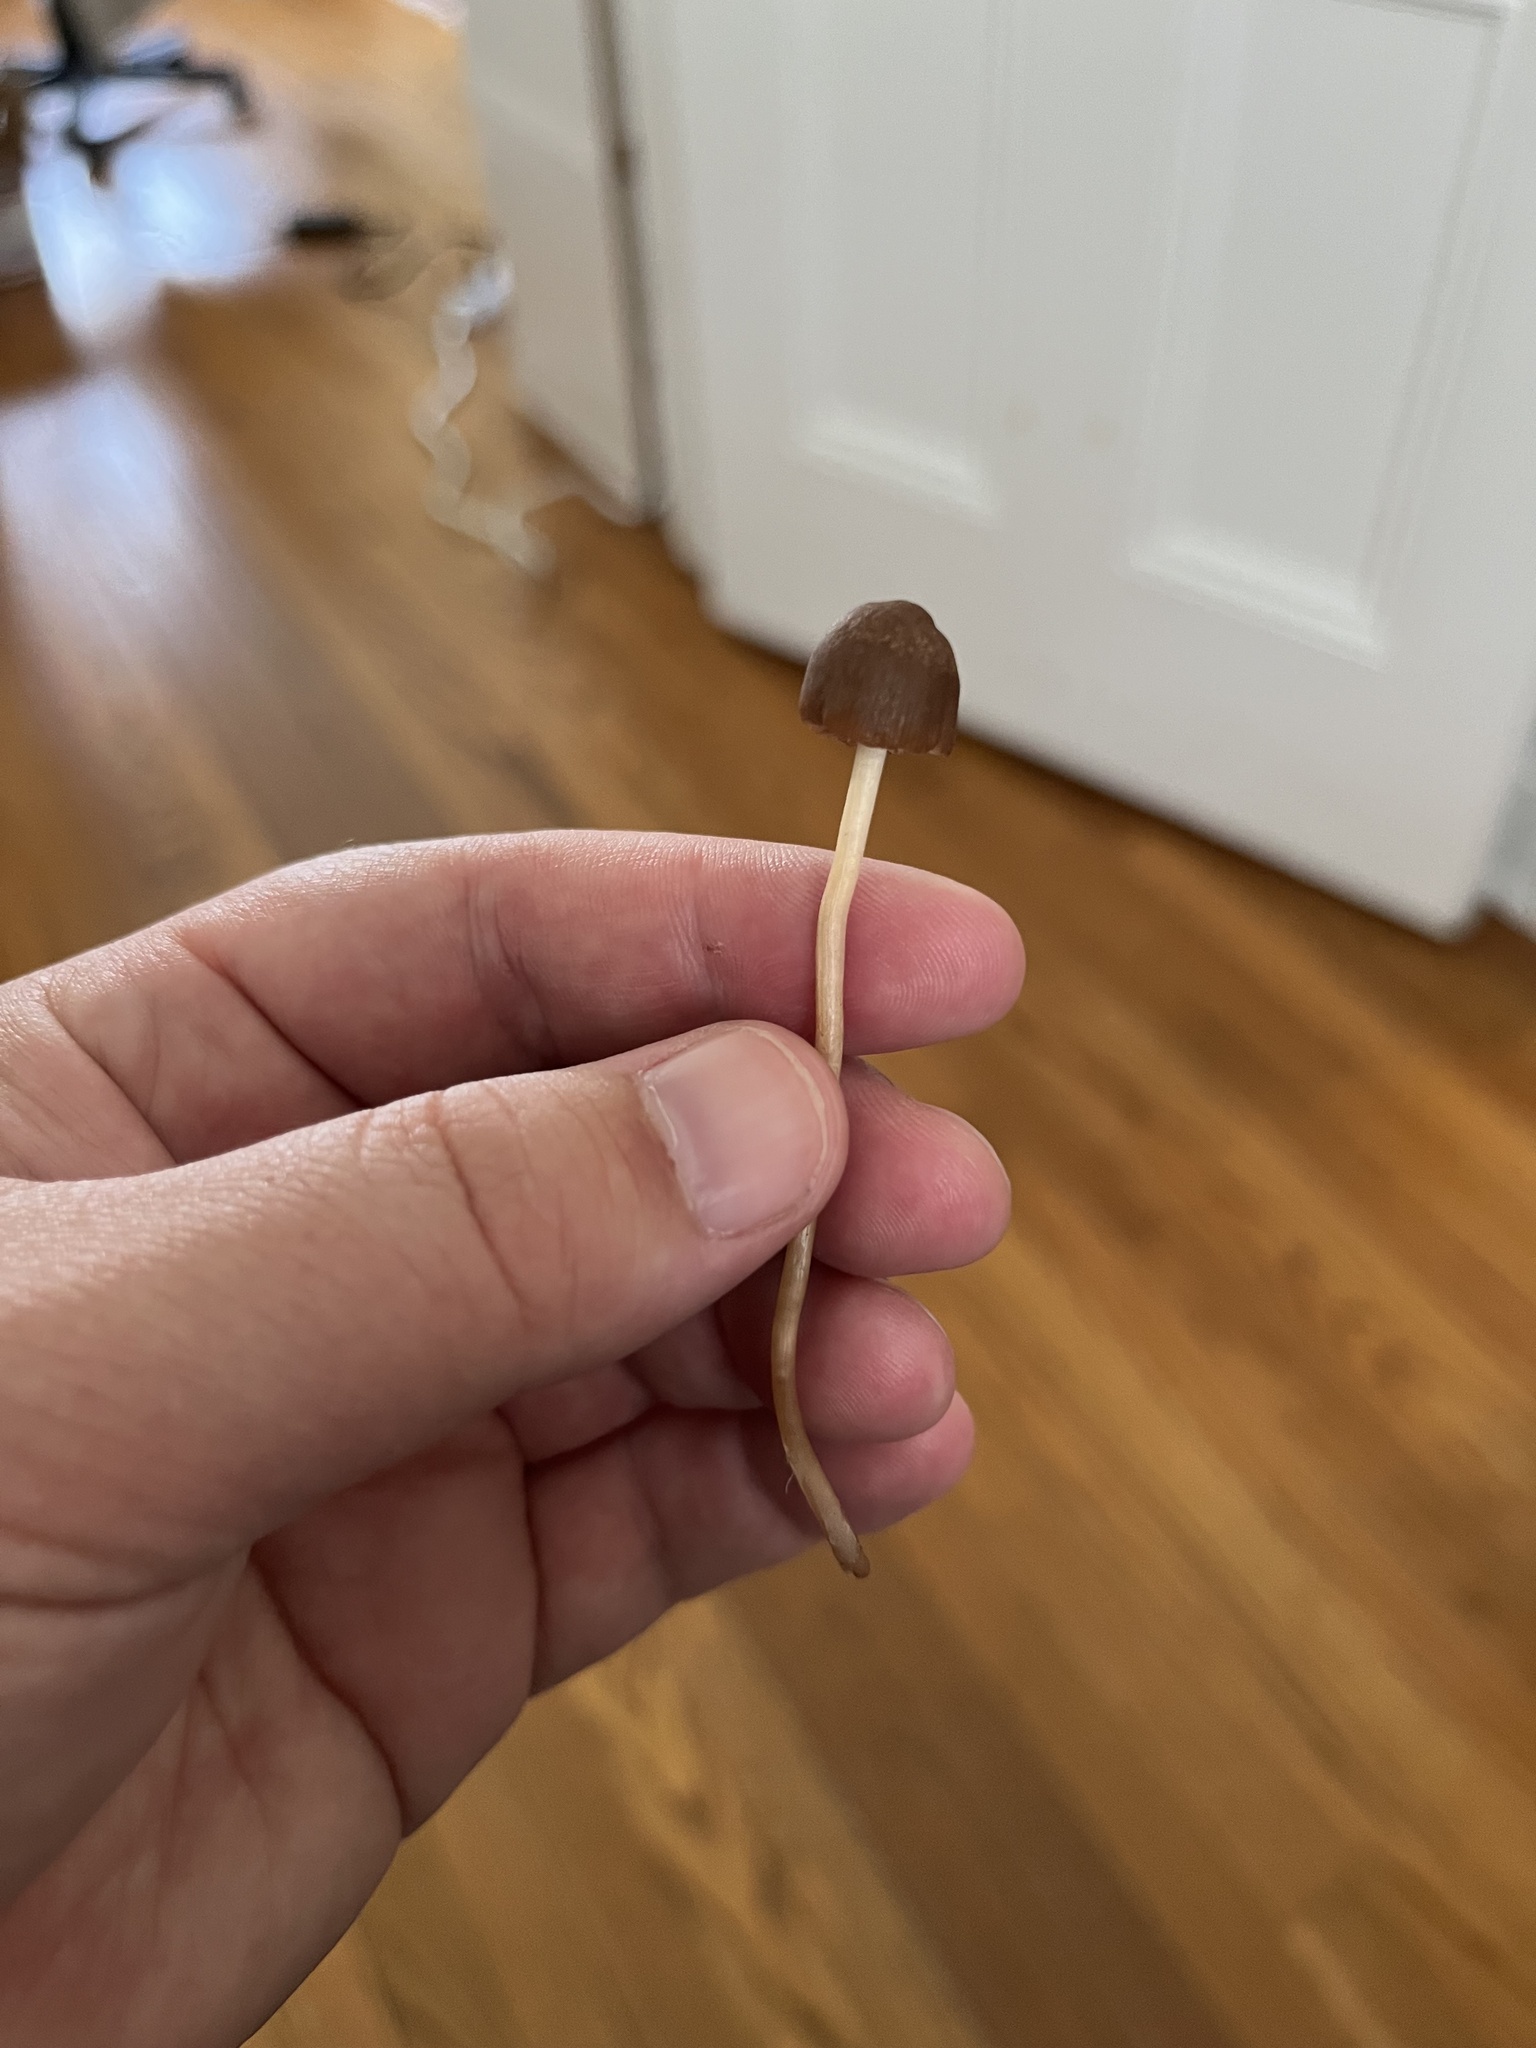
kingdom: Fungi
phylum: Basidiomycota
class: Agaricomycetes
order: Agaricales
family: Bolbitiaceae
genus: Panaeolina
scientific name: Panaeolina foenisecii
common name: Brown hay cap
